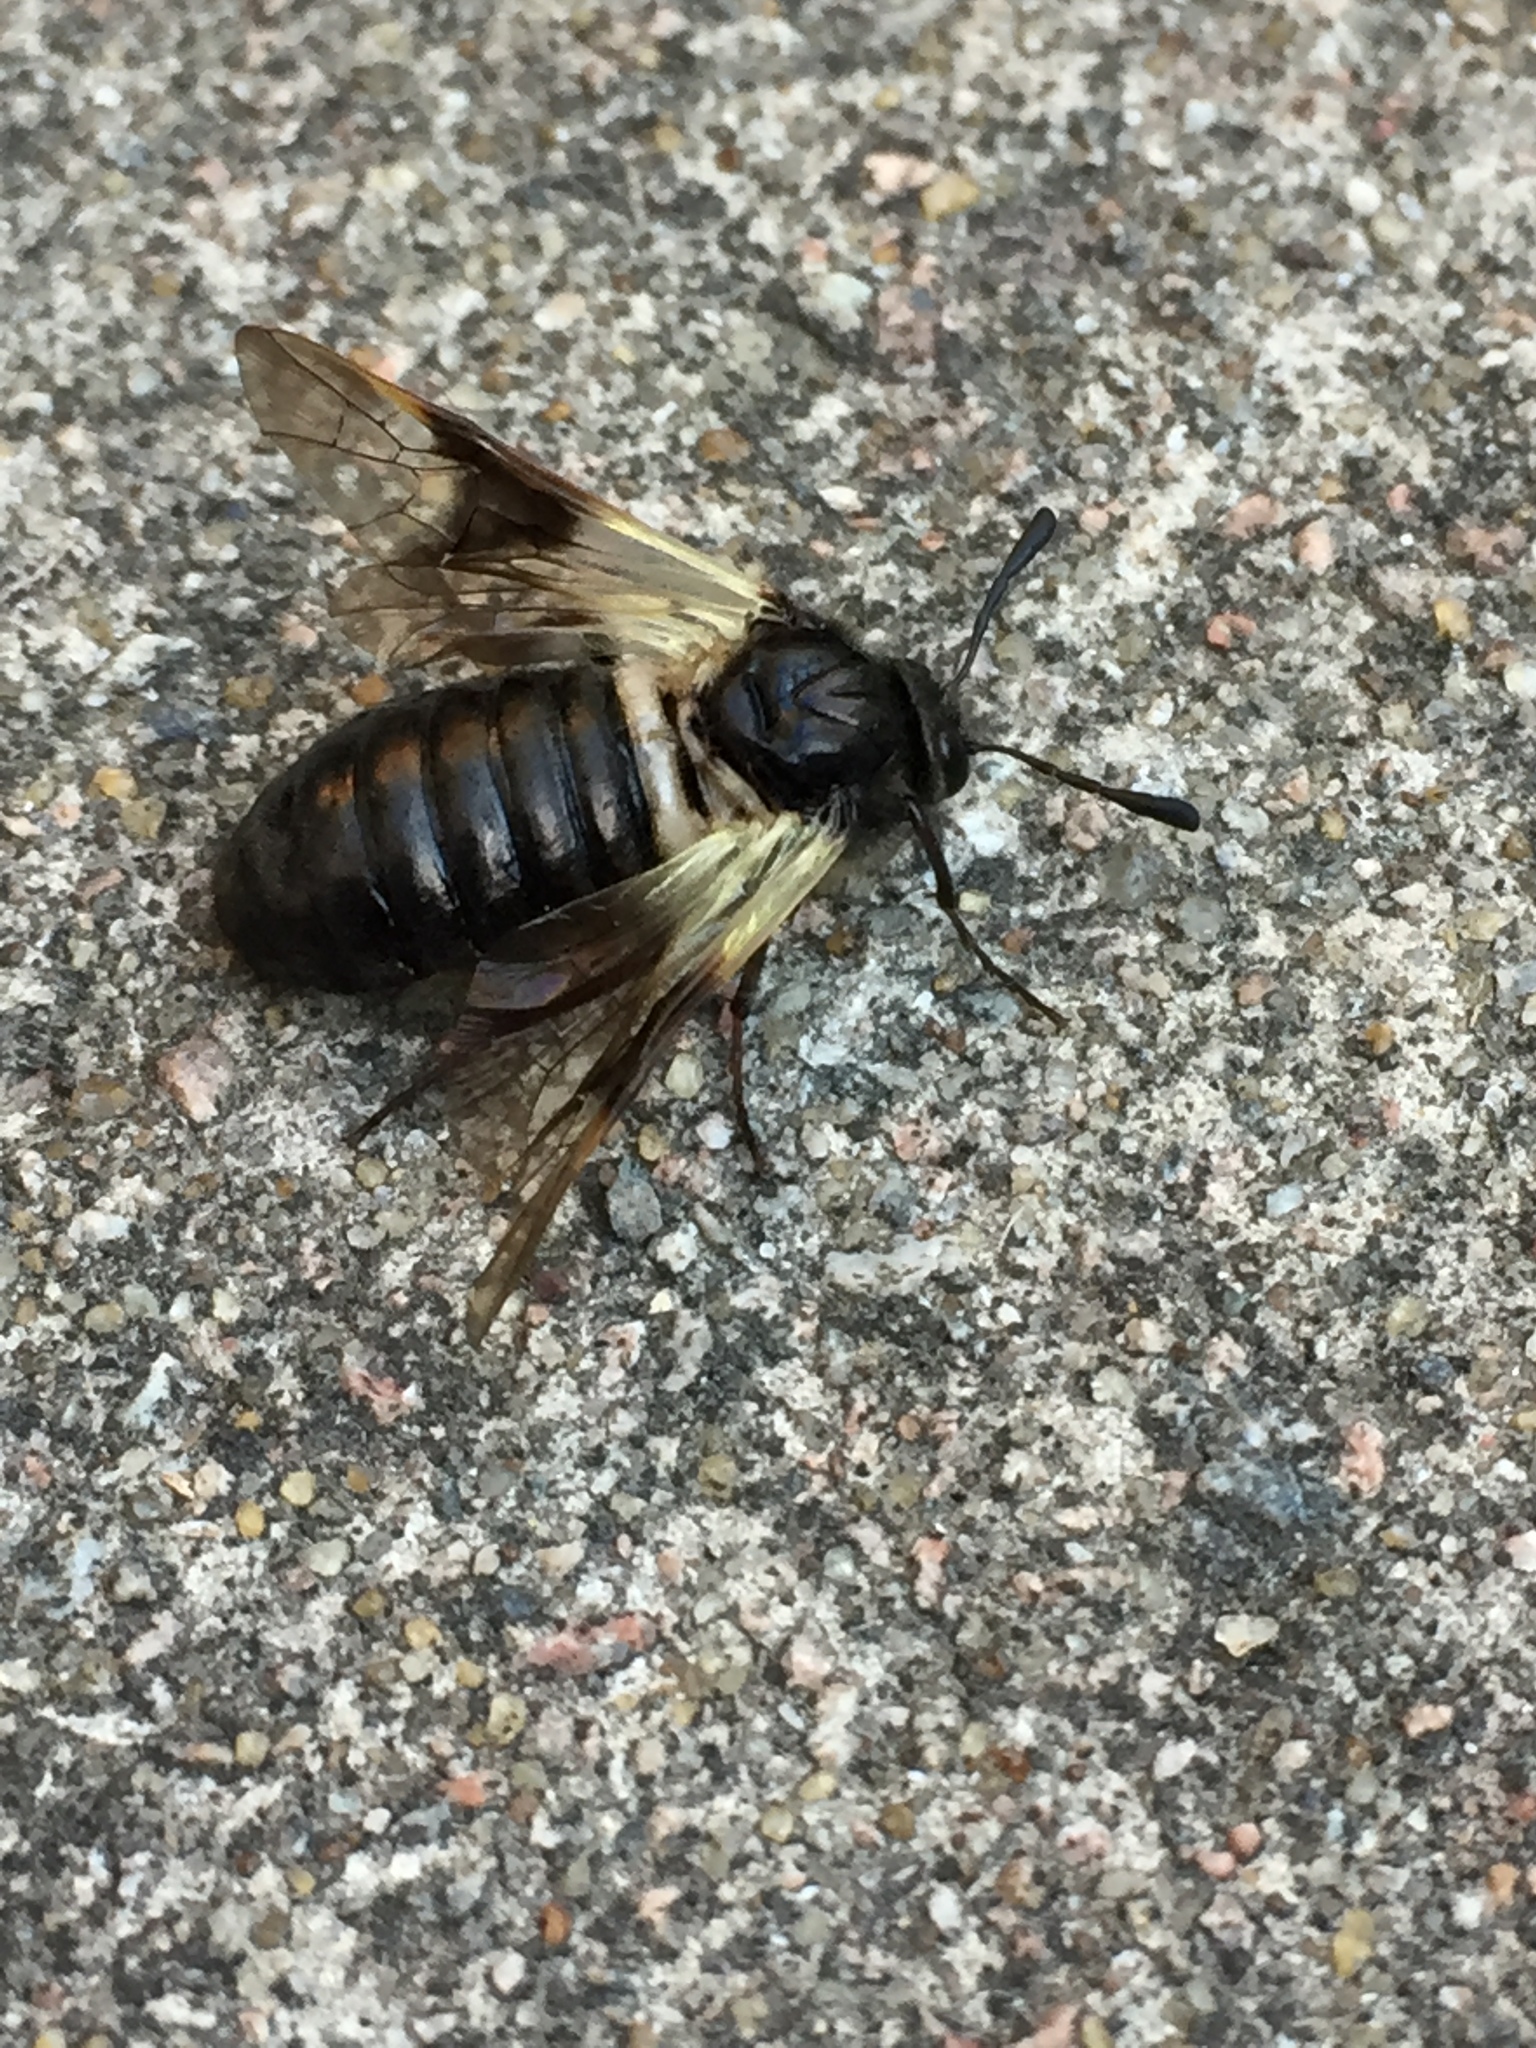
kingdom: Animalia
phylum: Arthropoda
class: Insecta
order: Hymenoptera
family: Cimbicidae
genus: Abia
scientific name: Abia fasciata
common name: Banded honeysuckle sawfly
